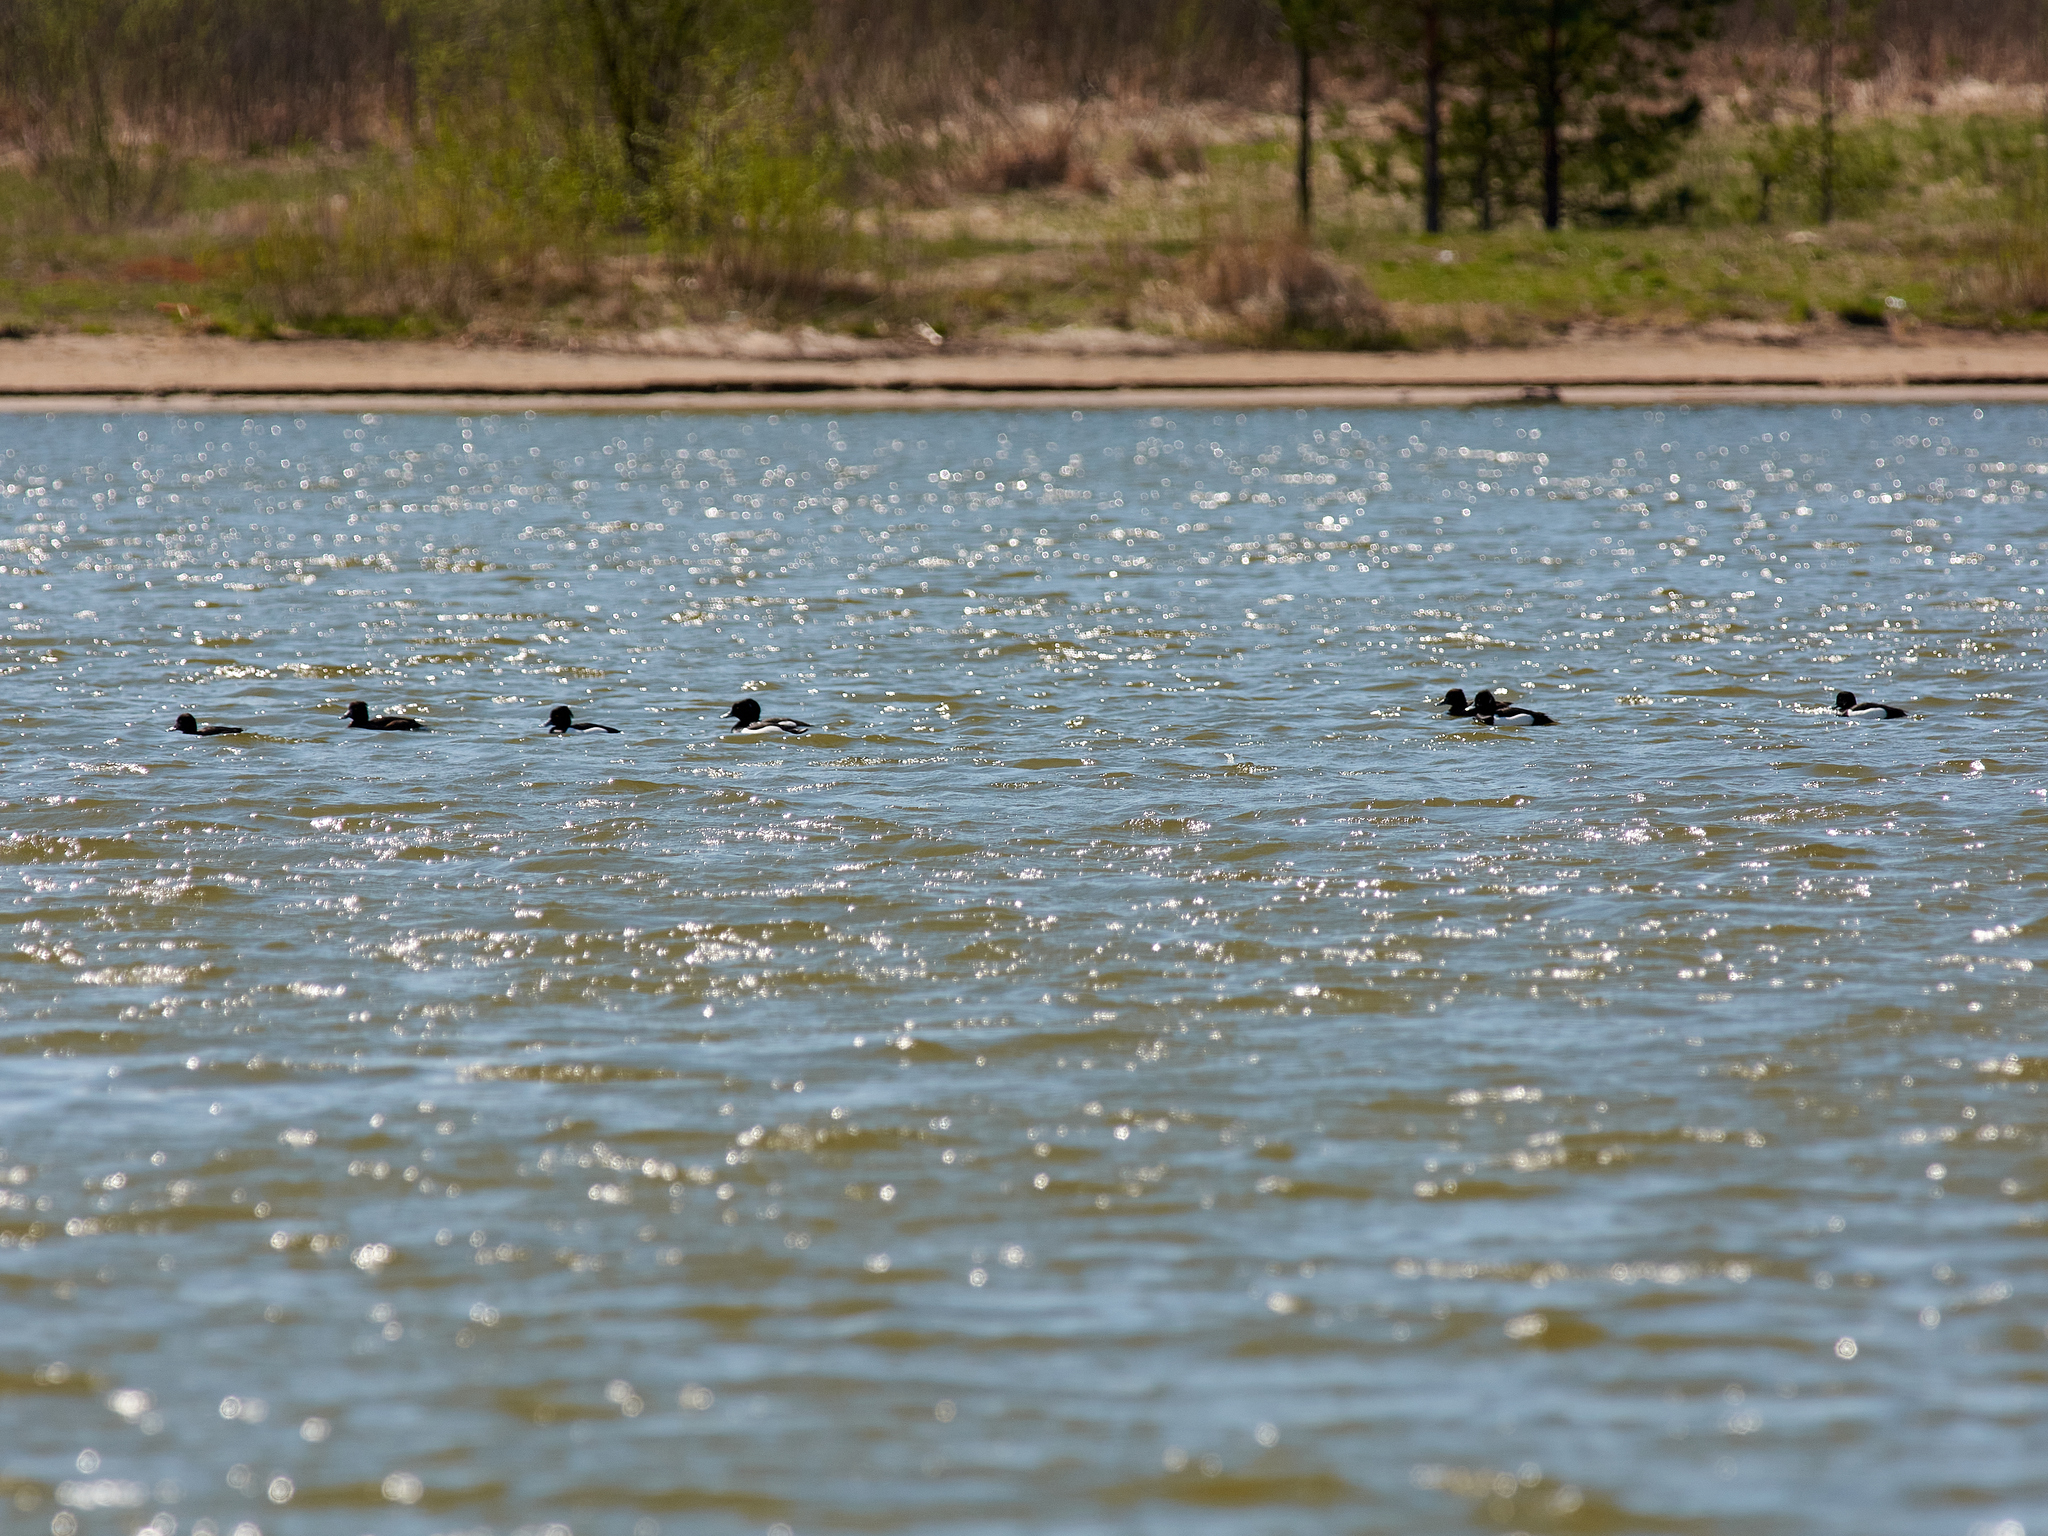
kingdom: Animalia
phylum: Chordata
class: Aves
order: Anseriformes
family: Anatidae
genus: Aythya
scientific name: Aythya fuligula
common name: Tufted duck
